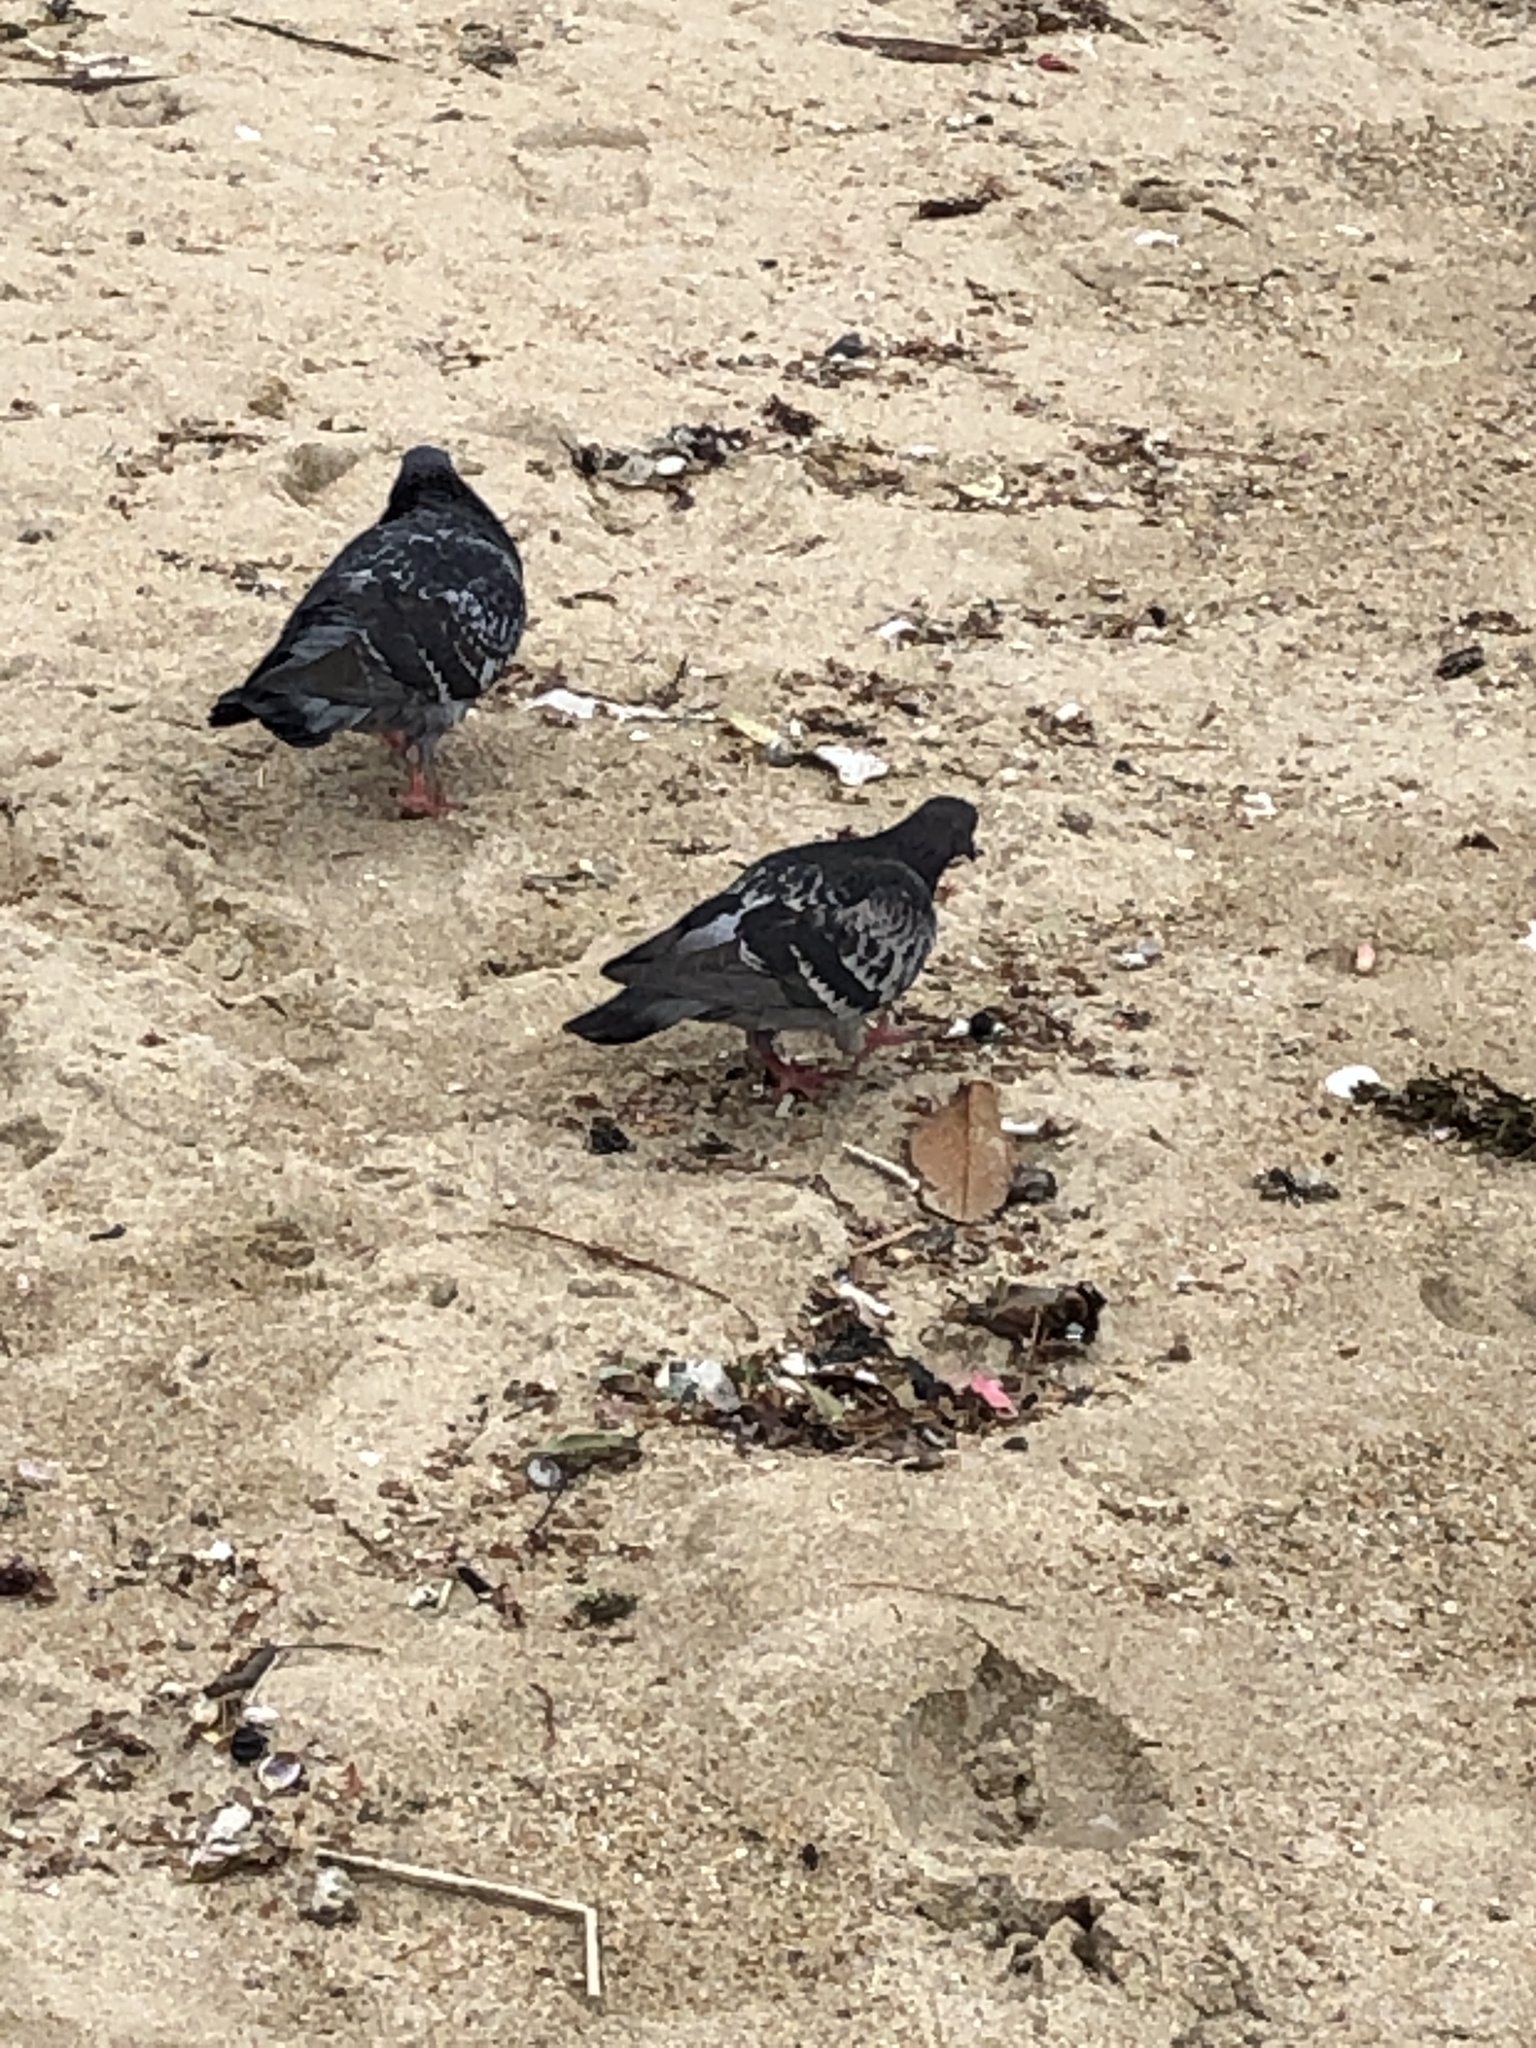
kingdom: Animalia
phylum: Chordata
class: Aves
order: Columbiformes
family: Columbidae
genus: Columba
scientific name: Columba livia
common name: Rock pigeon
